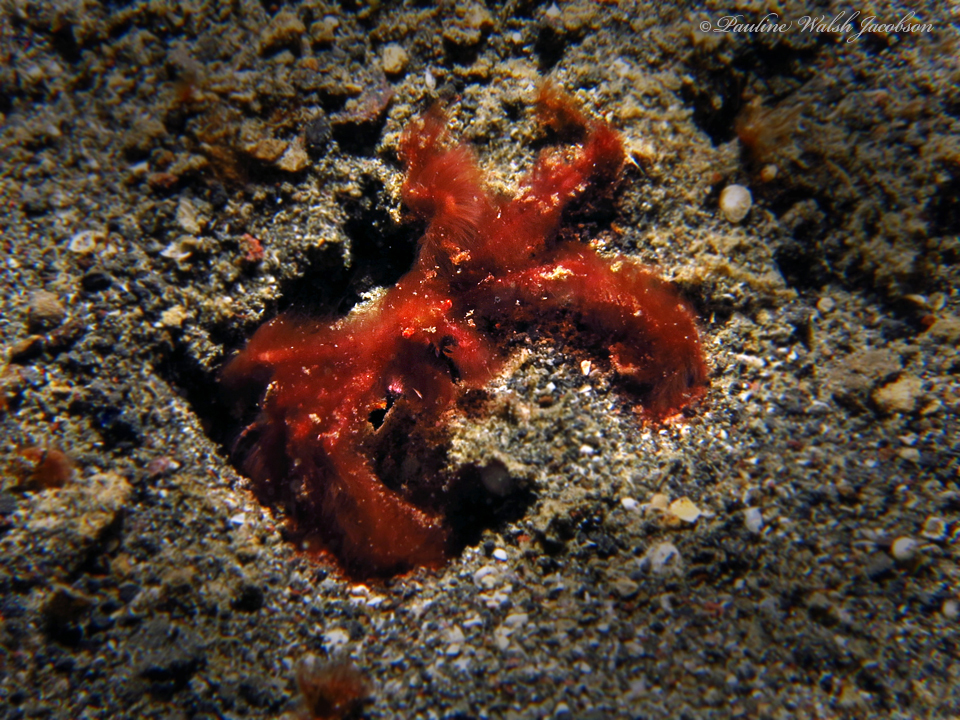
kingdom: Animalia
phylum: Arthropoda
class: Malacostraca
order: Decapoda
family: Inachidae
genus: Achaeus
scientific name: Achaeus japonicus
